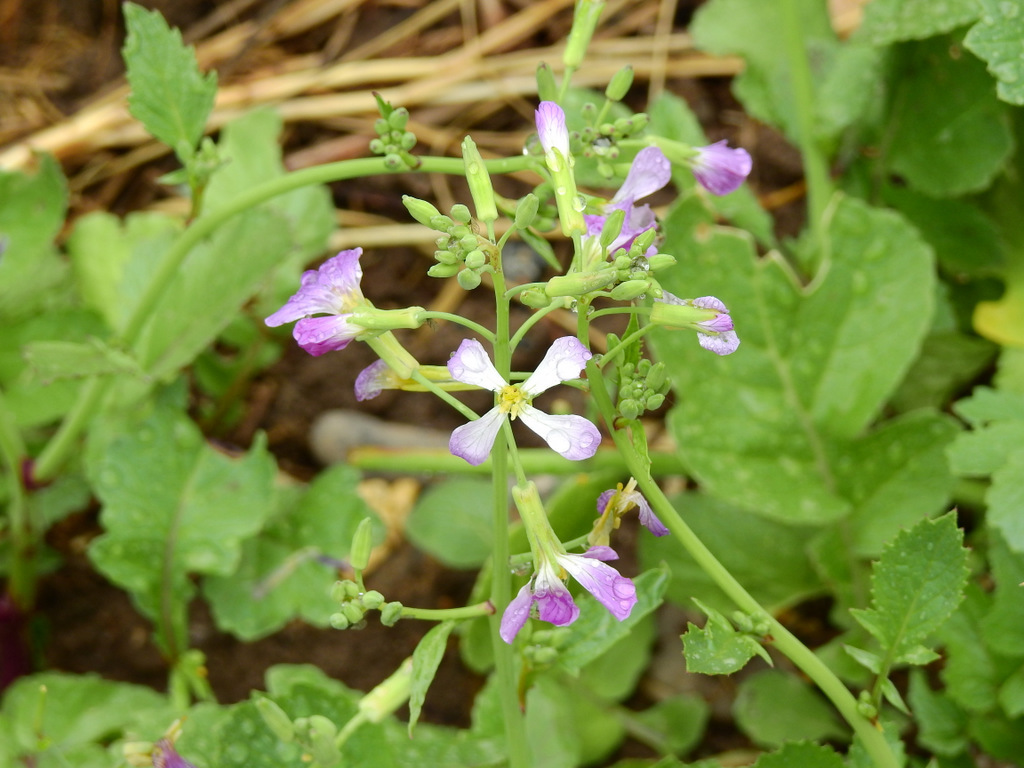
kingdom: Plantae
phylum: Tracheophyta
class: Magnoliopsida
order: Brassicales
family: Brassicaceae
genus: Raphanus
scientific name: Raphanus sativus
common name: Cultivated radish
